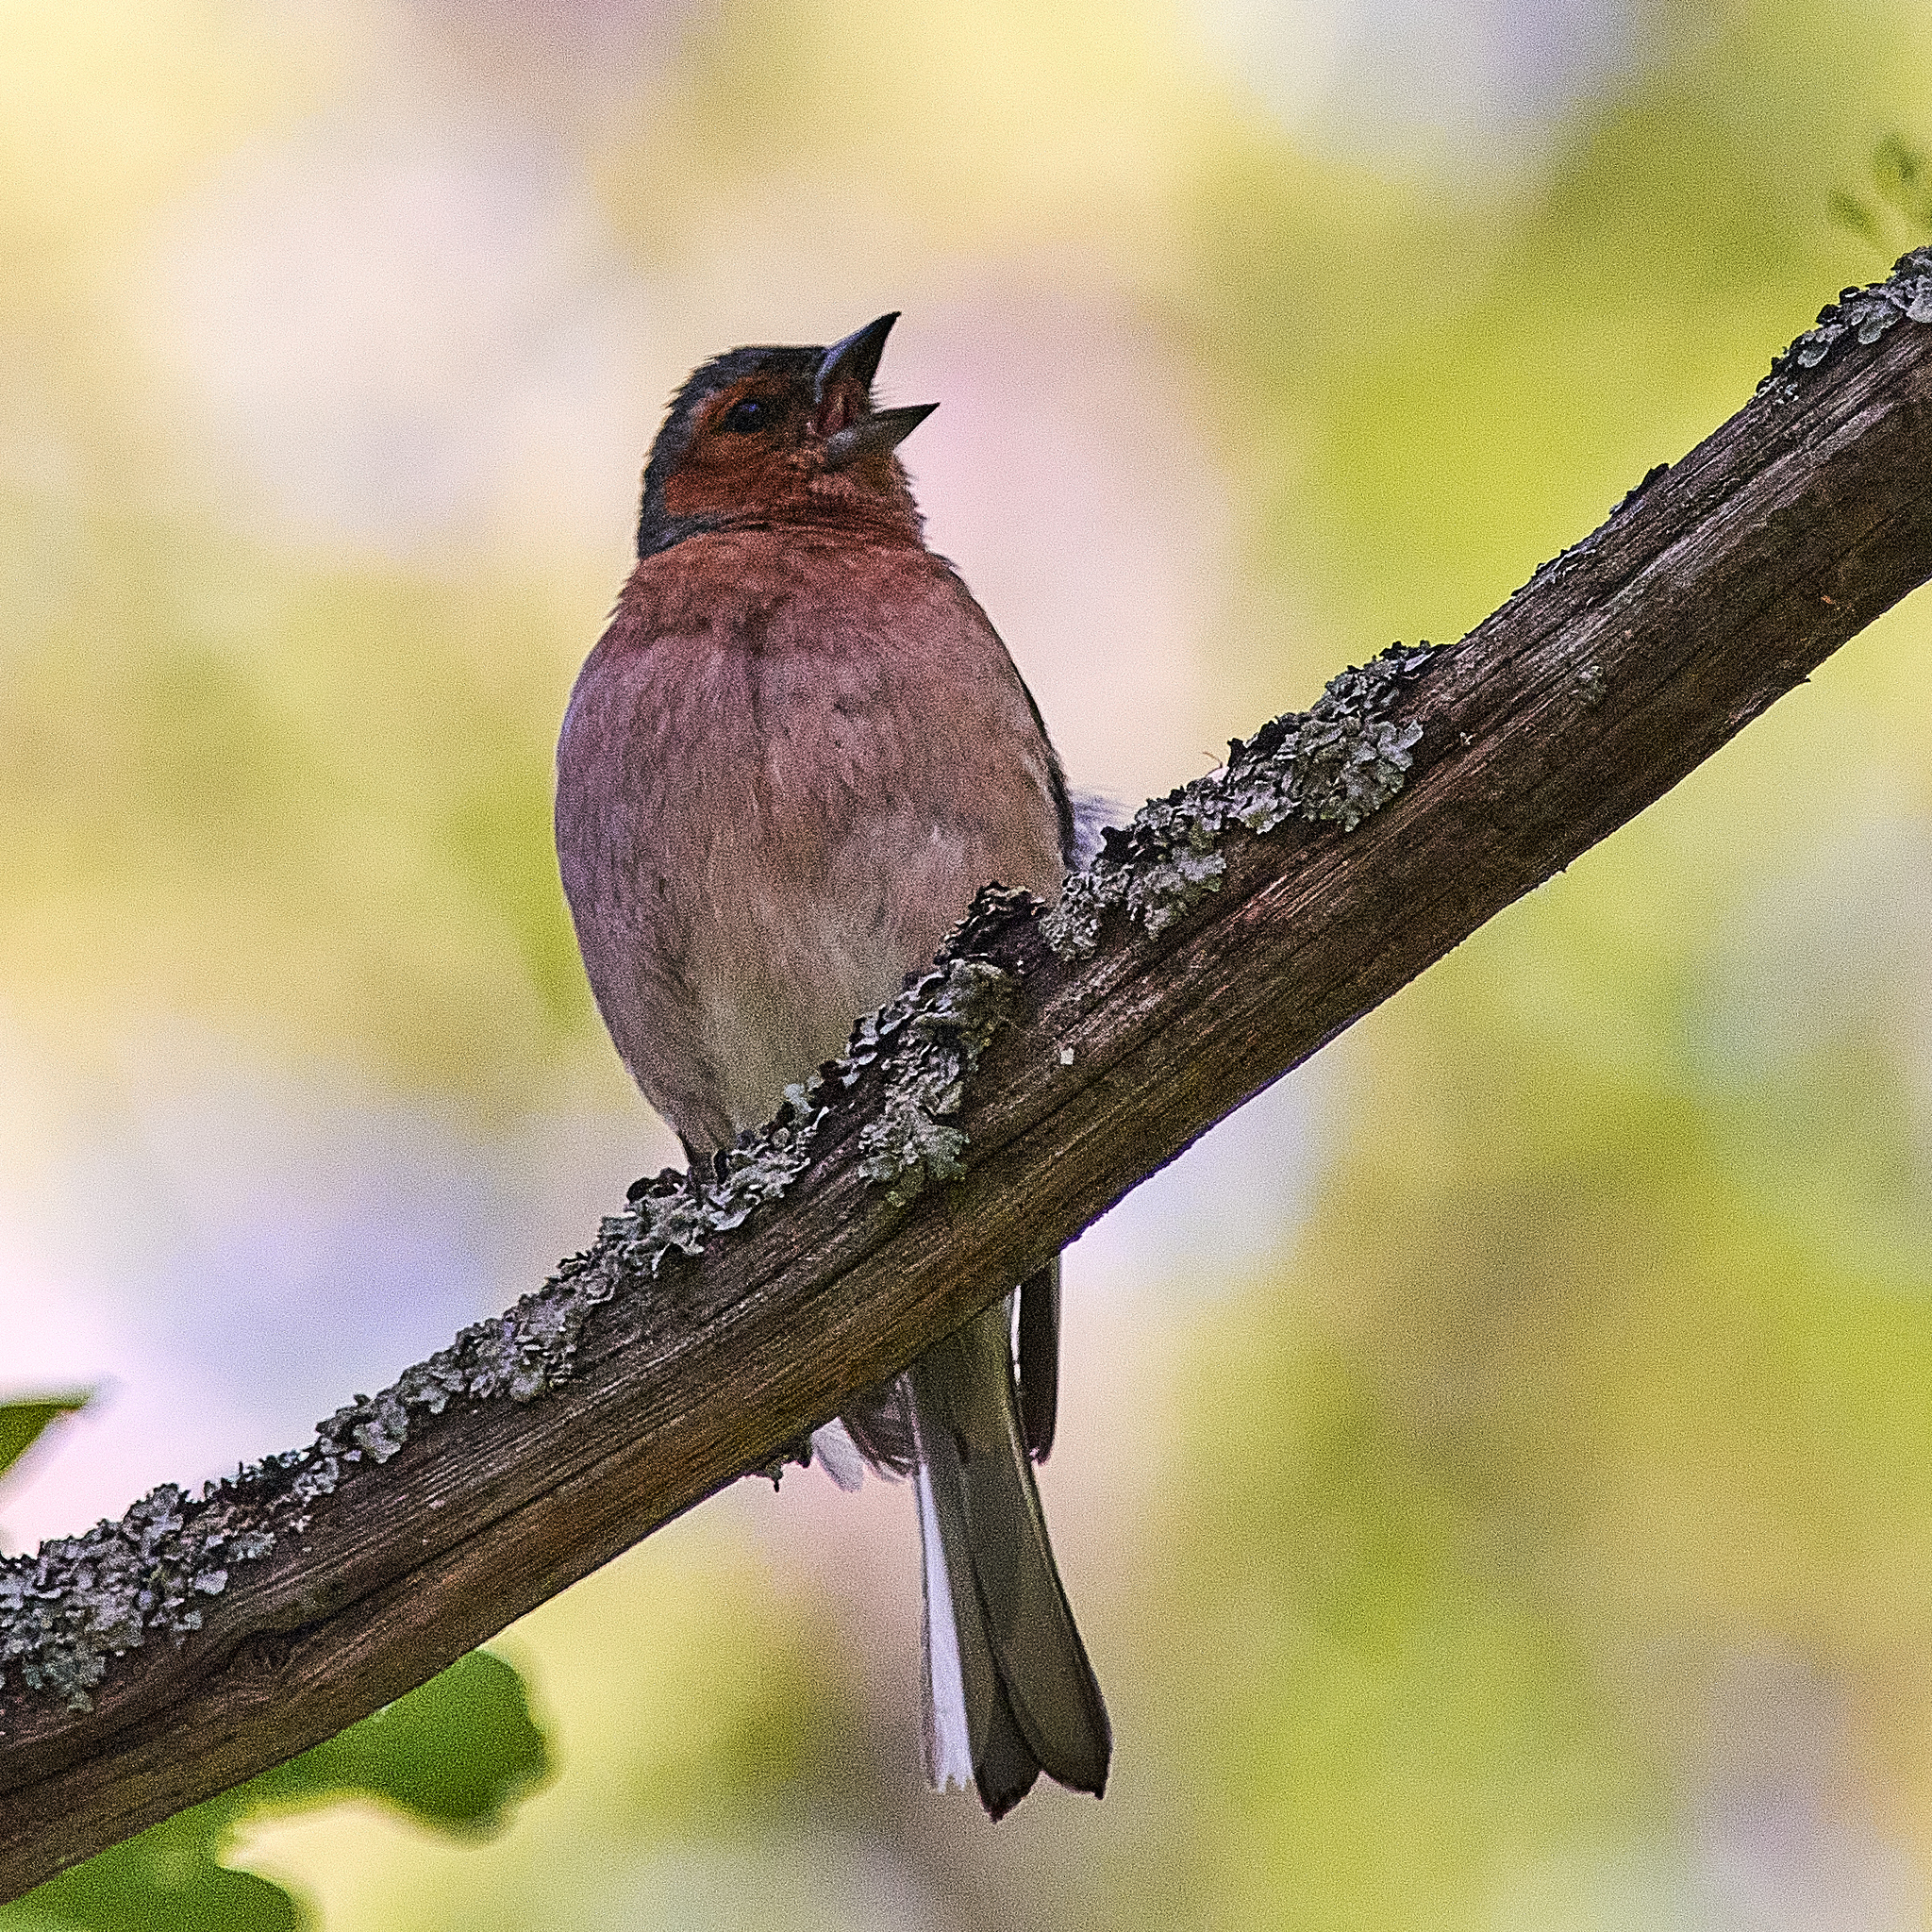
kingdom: Animalia
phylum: Chordata
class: Aves
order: Passeriformes
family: Fringillidae
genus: Fringilla
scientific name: Fringilla coelebs
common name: Common chaffinch
